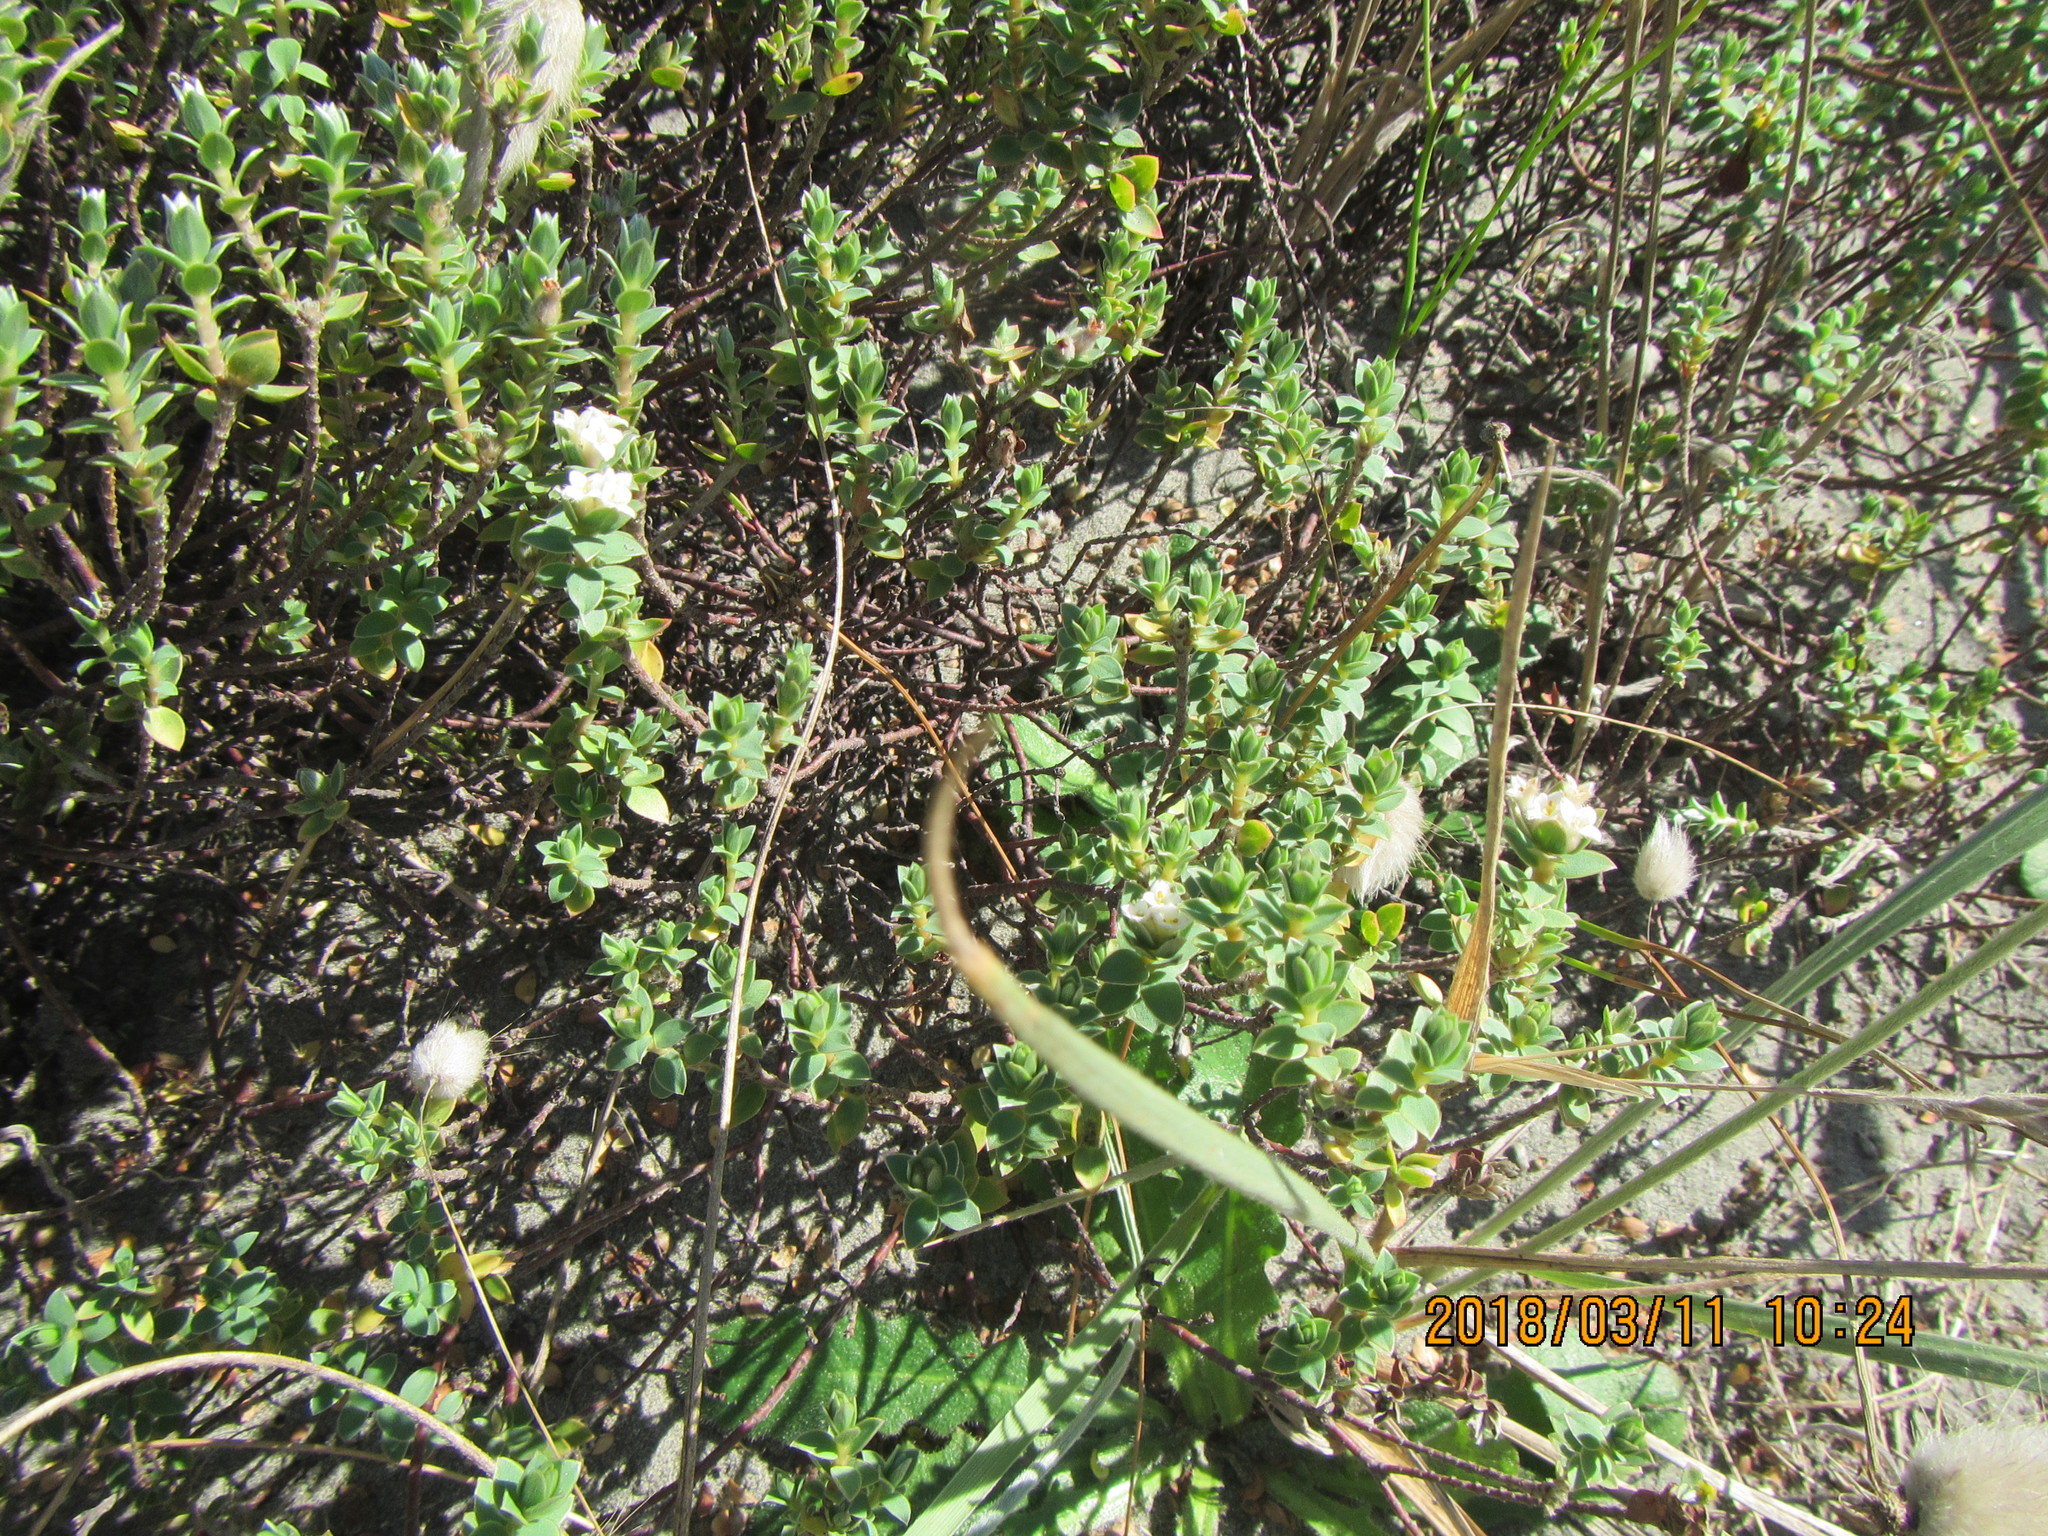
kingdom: Plantae
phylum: Tracheophyta
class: Magnoliopsida
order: Malvales
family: Thymelaeaceae
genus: Pimelea
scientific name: Pimelea villosa
